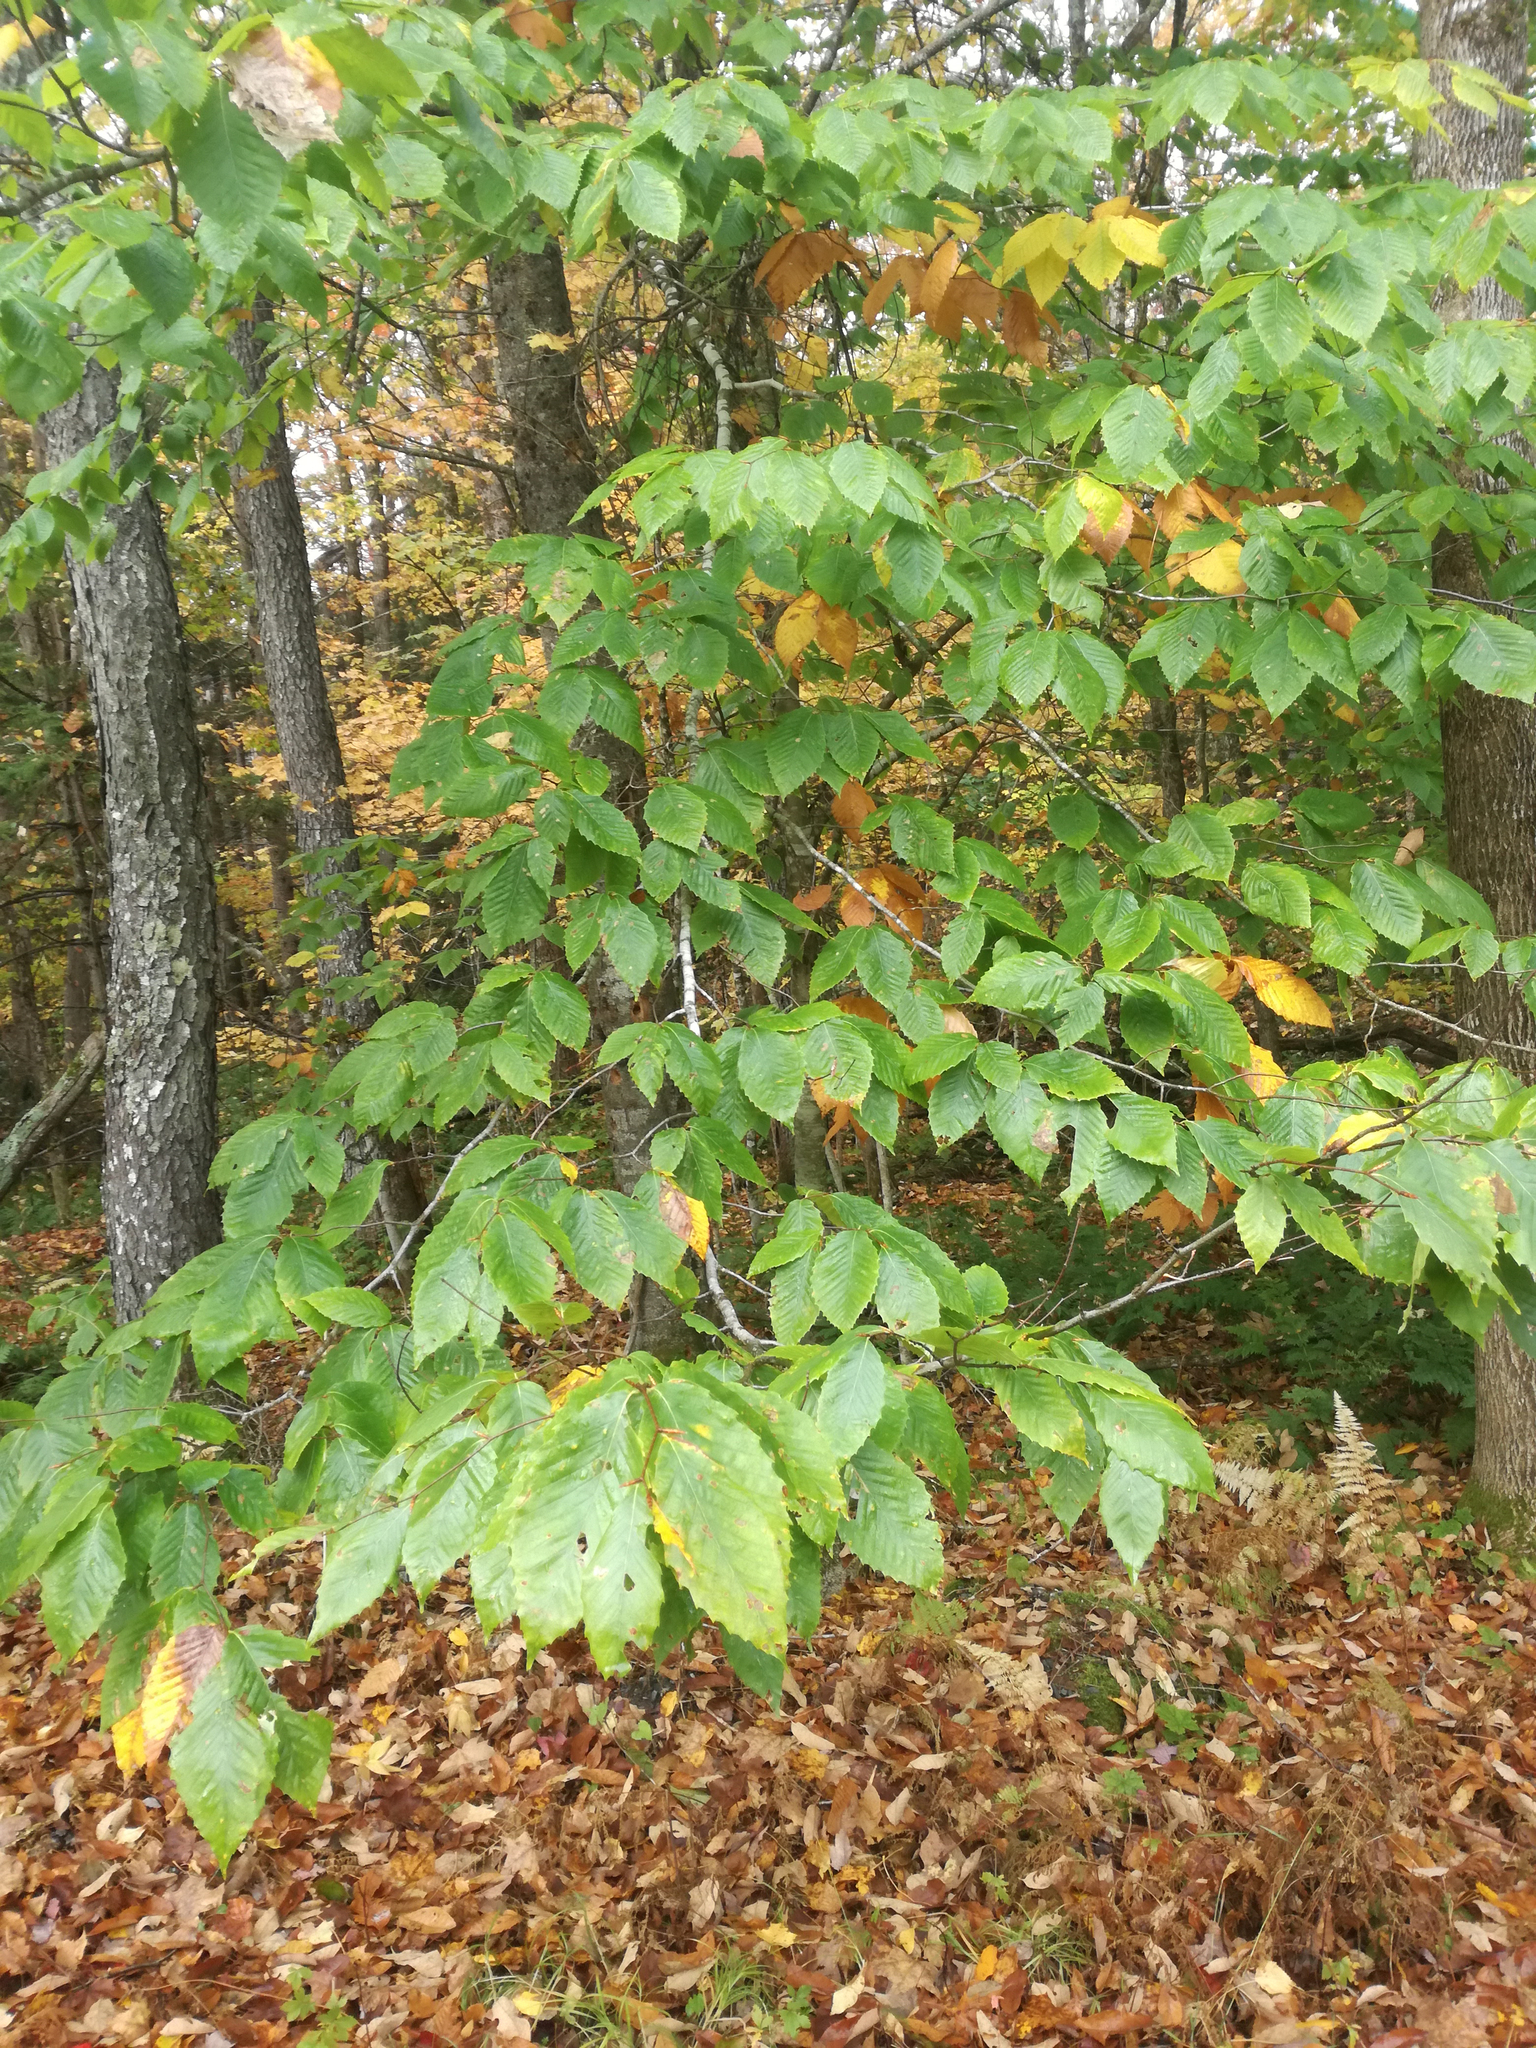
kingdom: Plantae
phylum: Tracheophyta
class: Magnoliopsida
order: Fagales
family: Fagaceae
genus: Fagus
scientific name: Fagus grandifolia
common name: American beech
